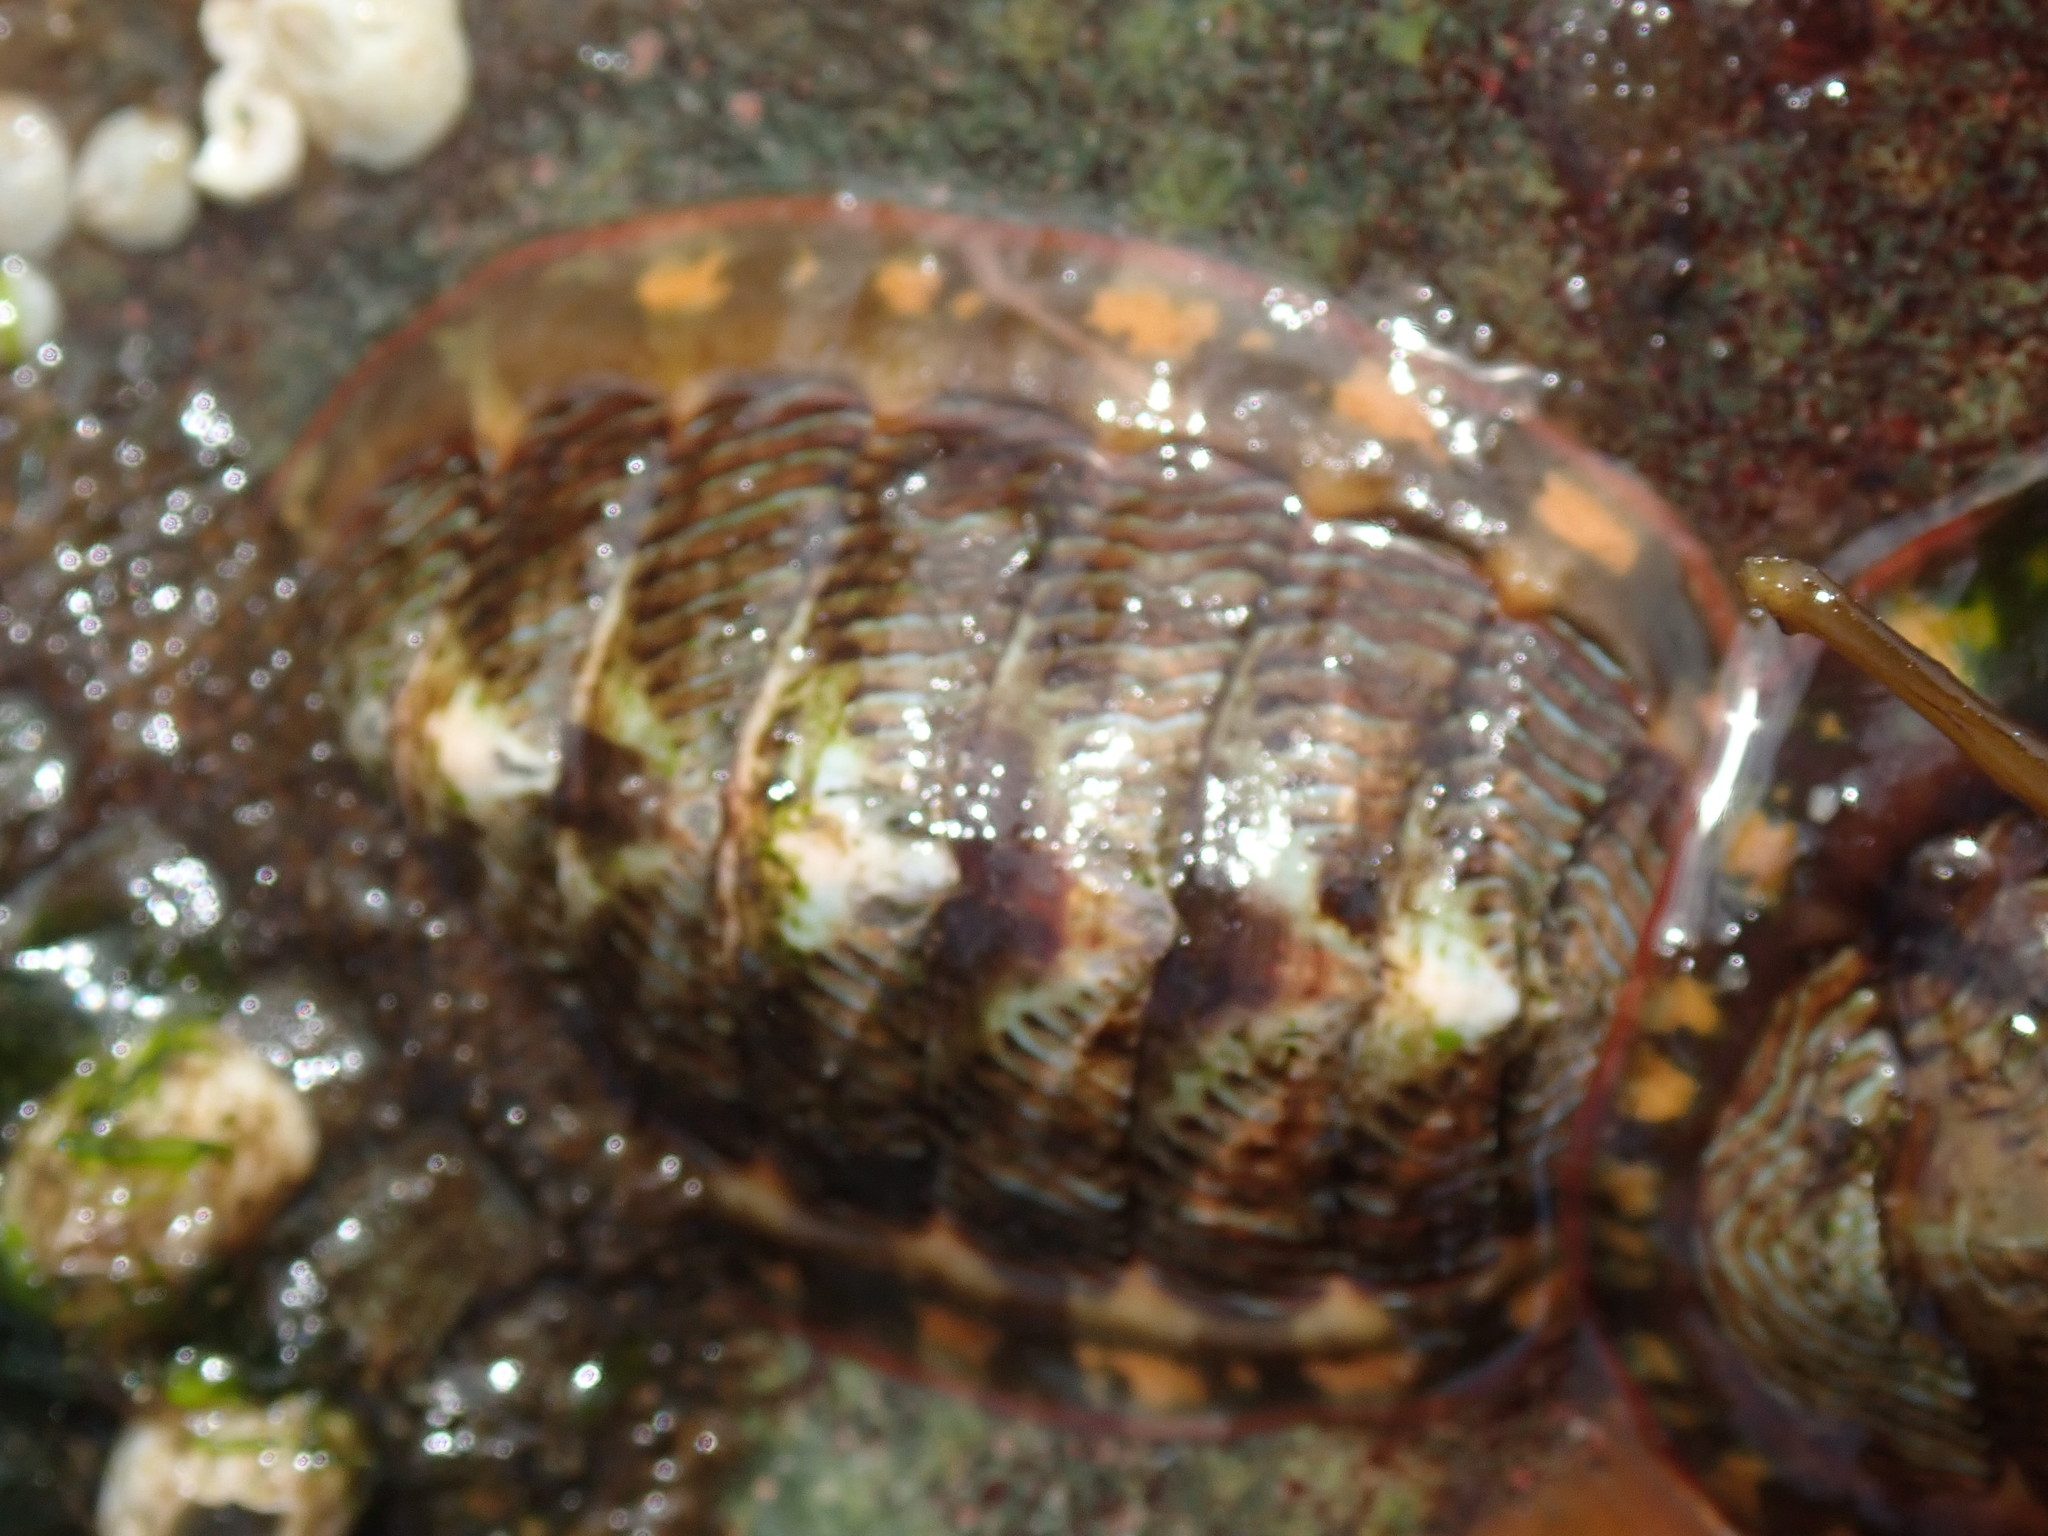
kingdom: Animalia
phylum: Mollusca
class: Polyplacophora
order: Chitonida
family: Tonicellidae
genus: Tonicella
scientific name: Tonicella lineata
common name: Lined chiton
